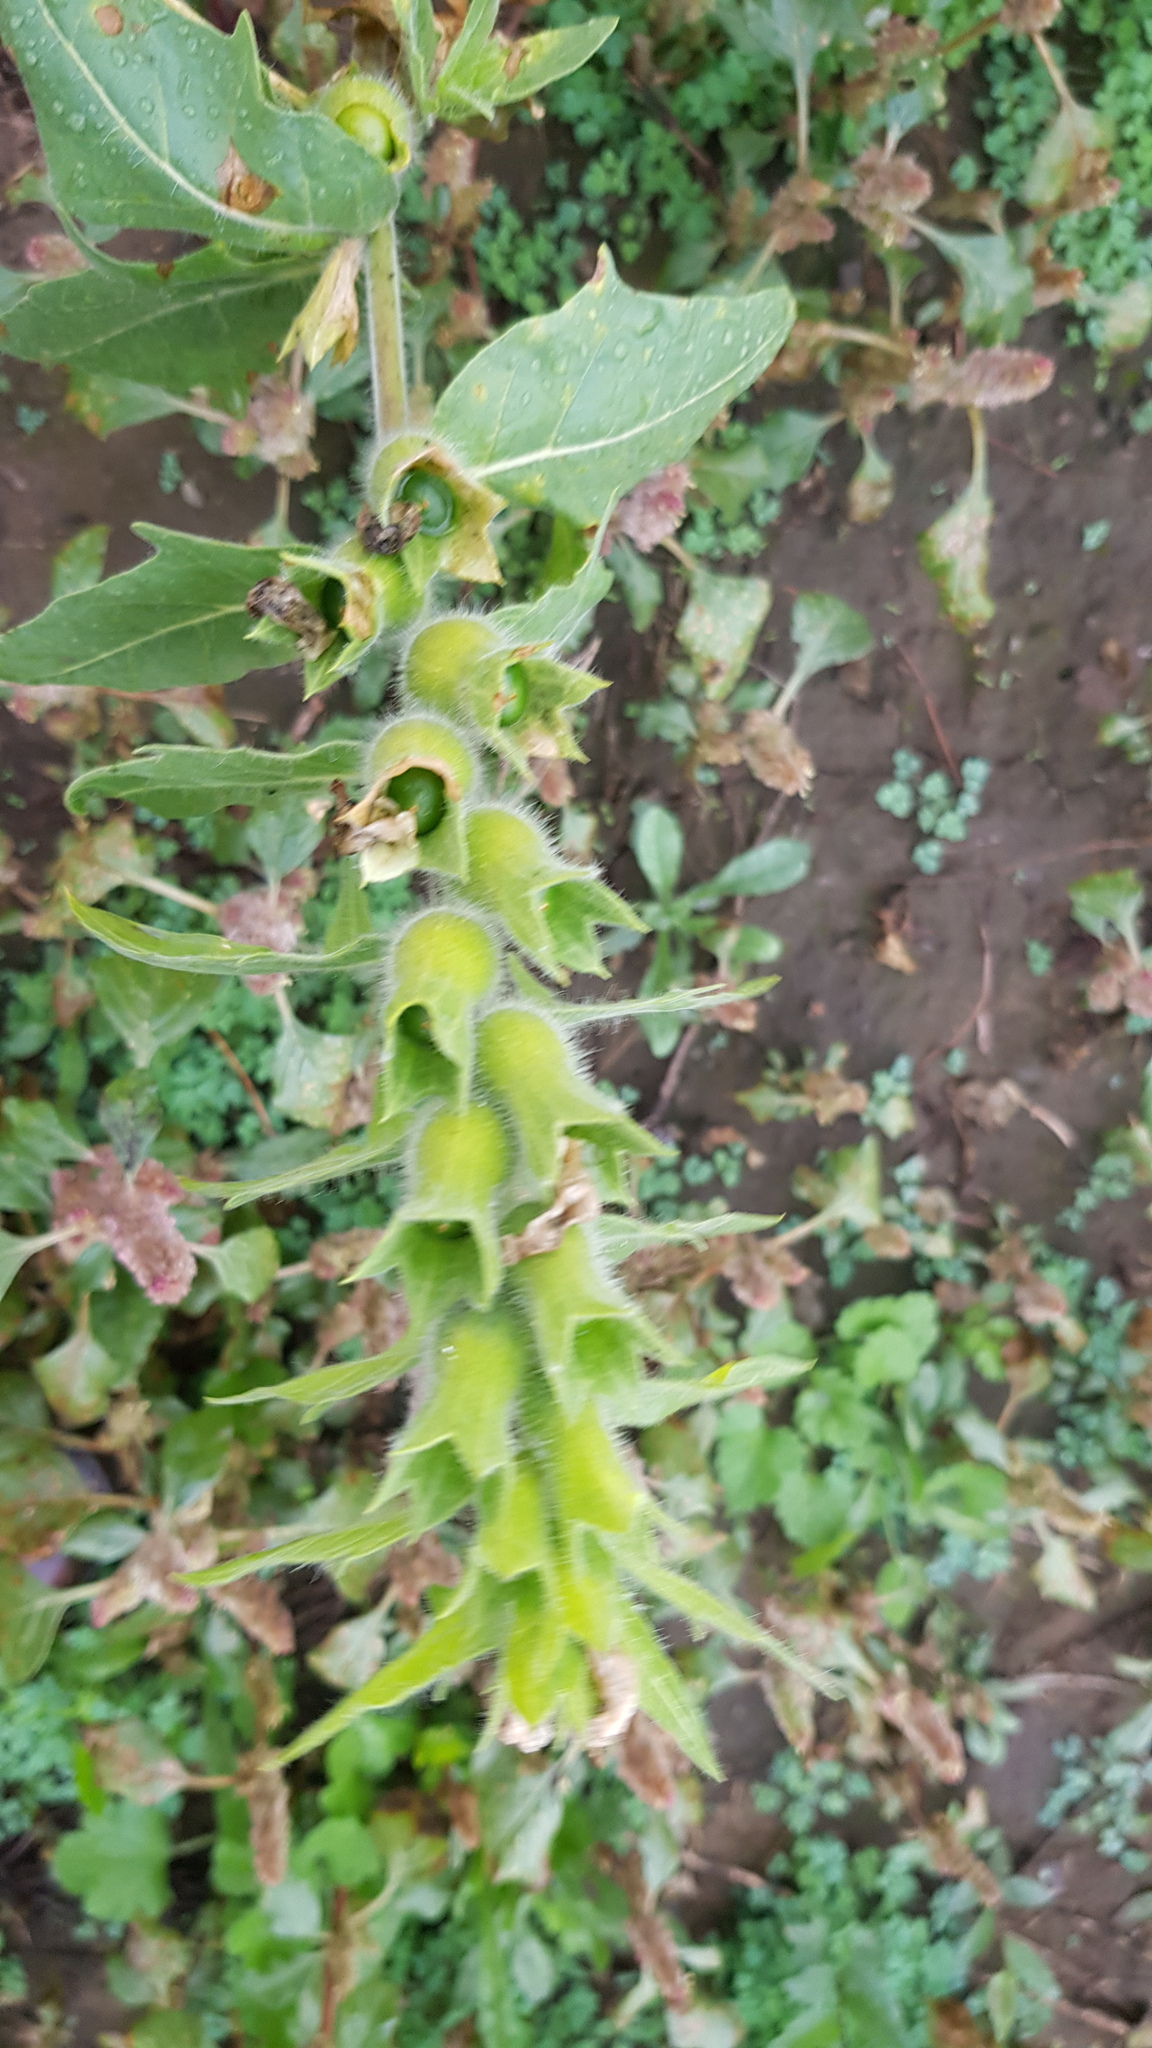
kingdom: Plantae
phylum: Tracheophyta
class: Magnoliopsida
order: Solanales
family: Solanaceae
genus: Hyoscyamus
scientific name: Hyoscyamus niger
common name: Henbane
